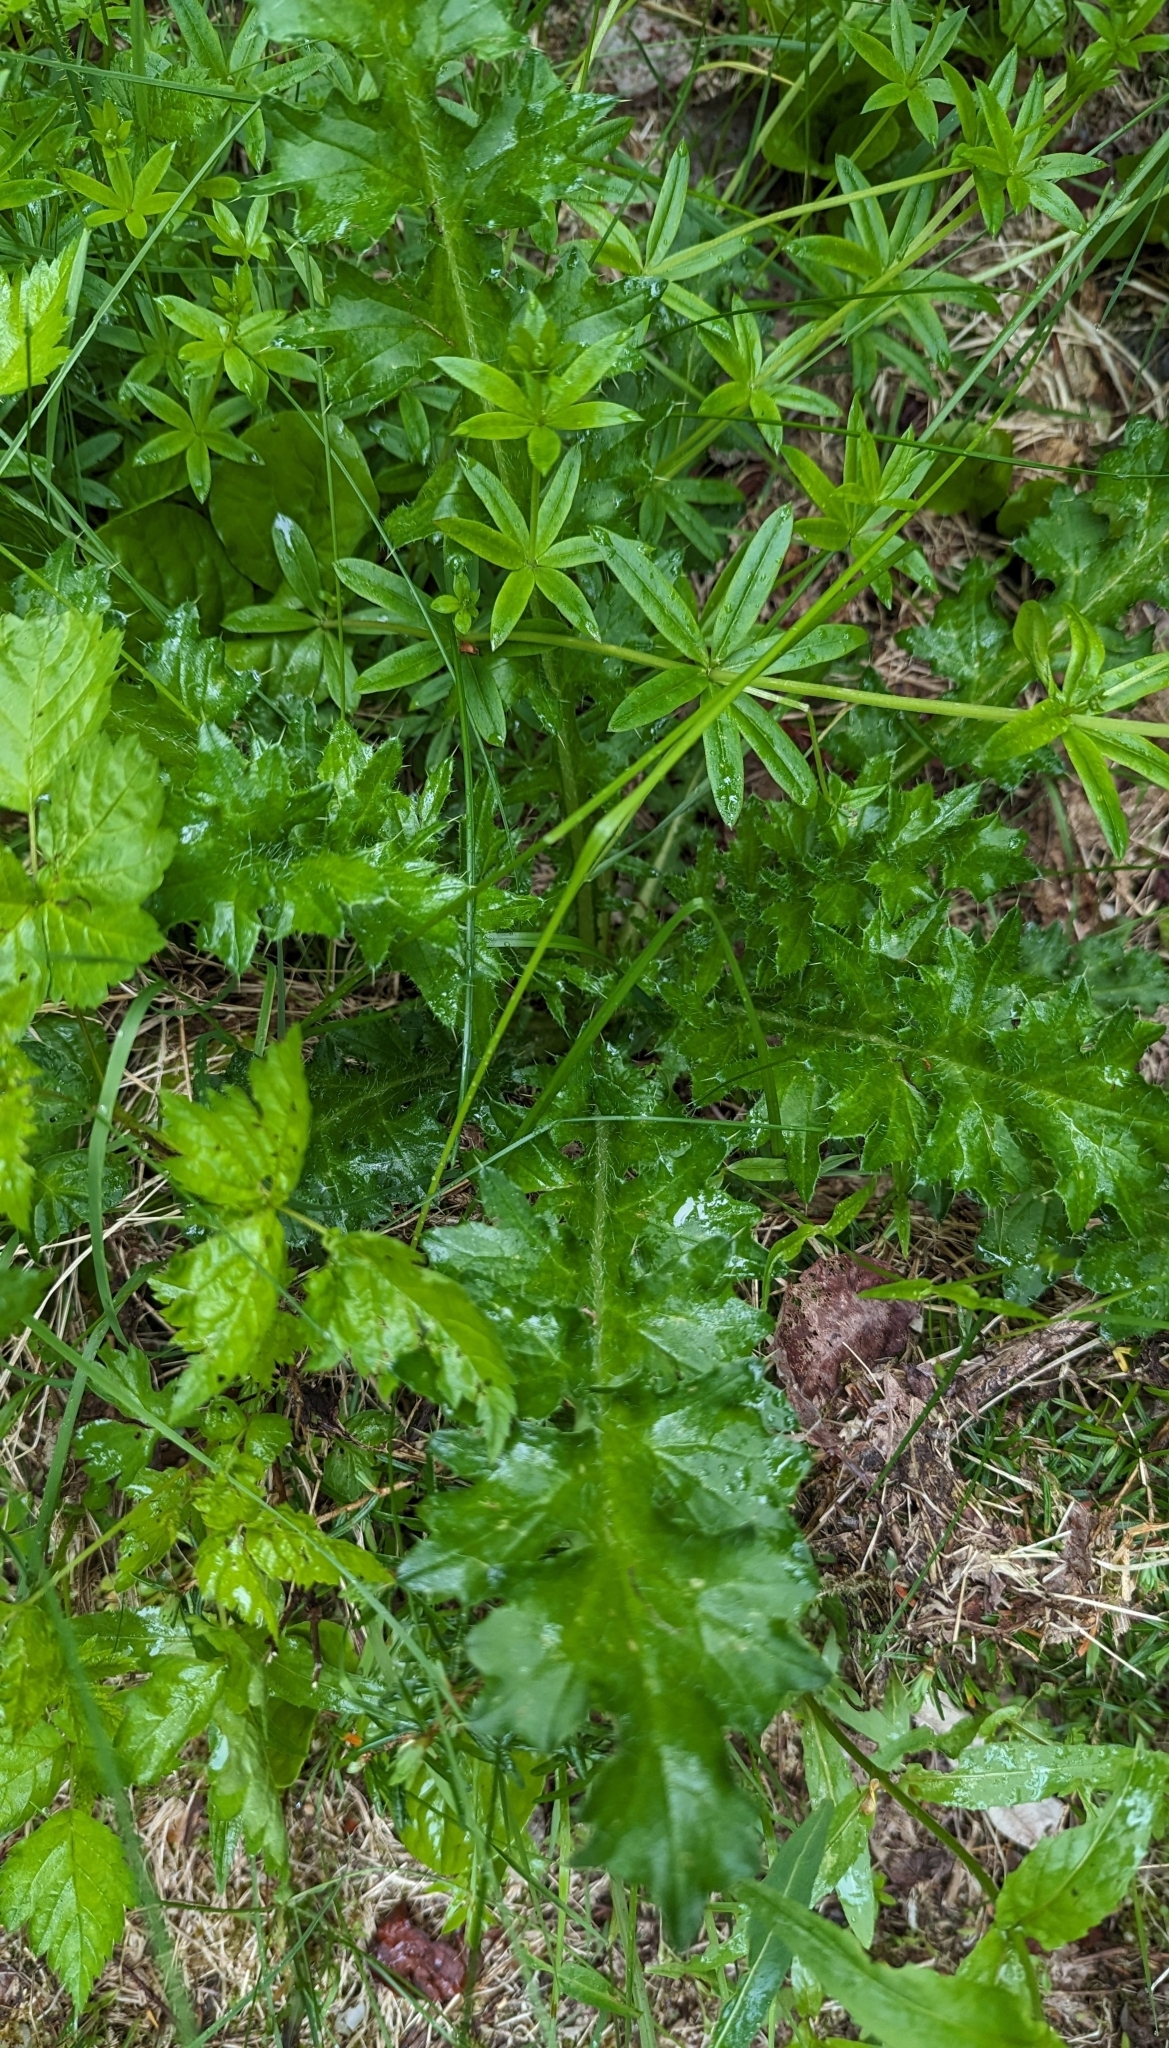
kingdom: Plantae
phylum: Tracheophyta
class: Magnoliopsida
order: Asterales
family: Asteraceae
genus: Cirsium
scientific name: Cirsium edule
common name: Indian thistle
